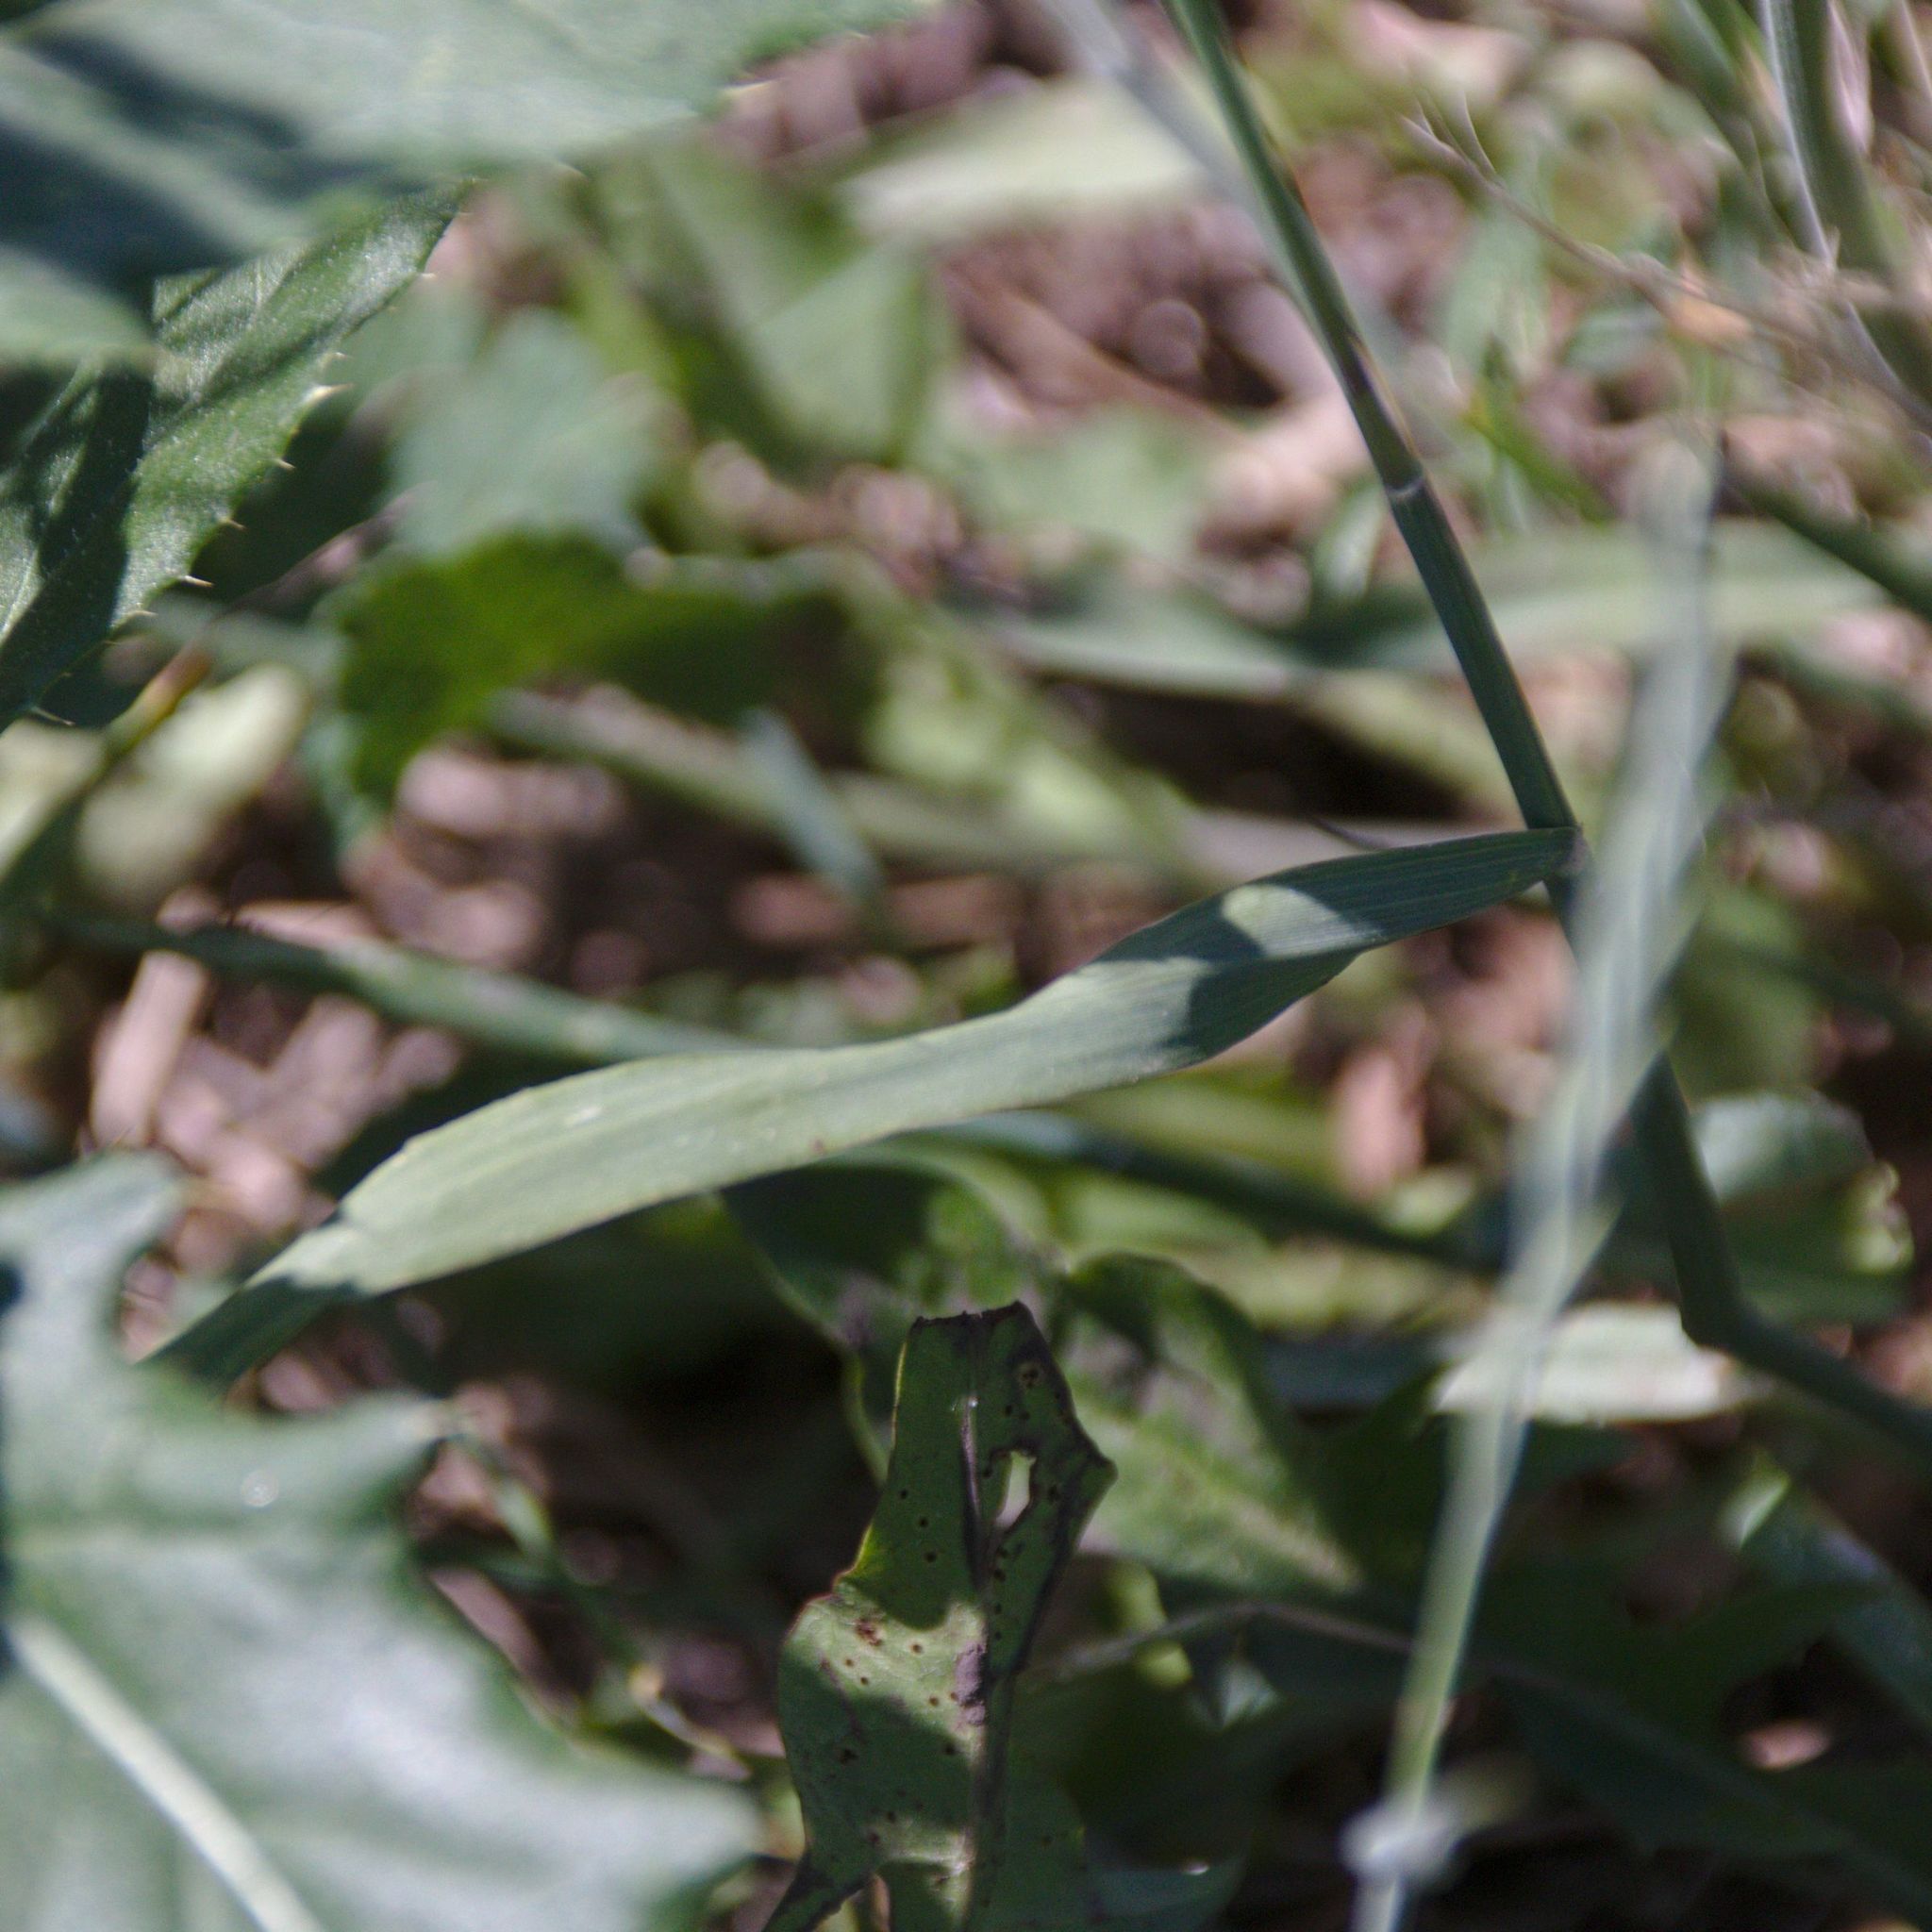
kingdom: Plantae
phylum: Tracheophyta
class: Liliopsida
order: Poales
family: Poaceae
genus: Phleum
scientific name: Phleum pratense
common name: Timothy grass
